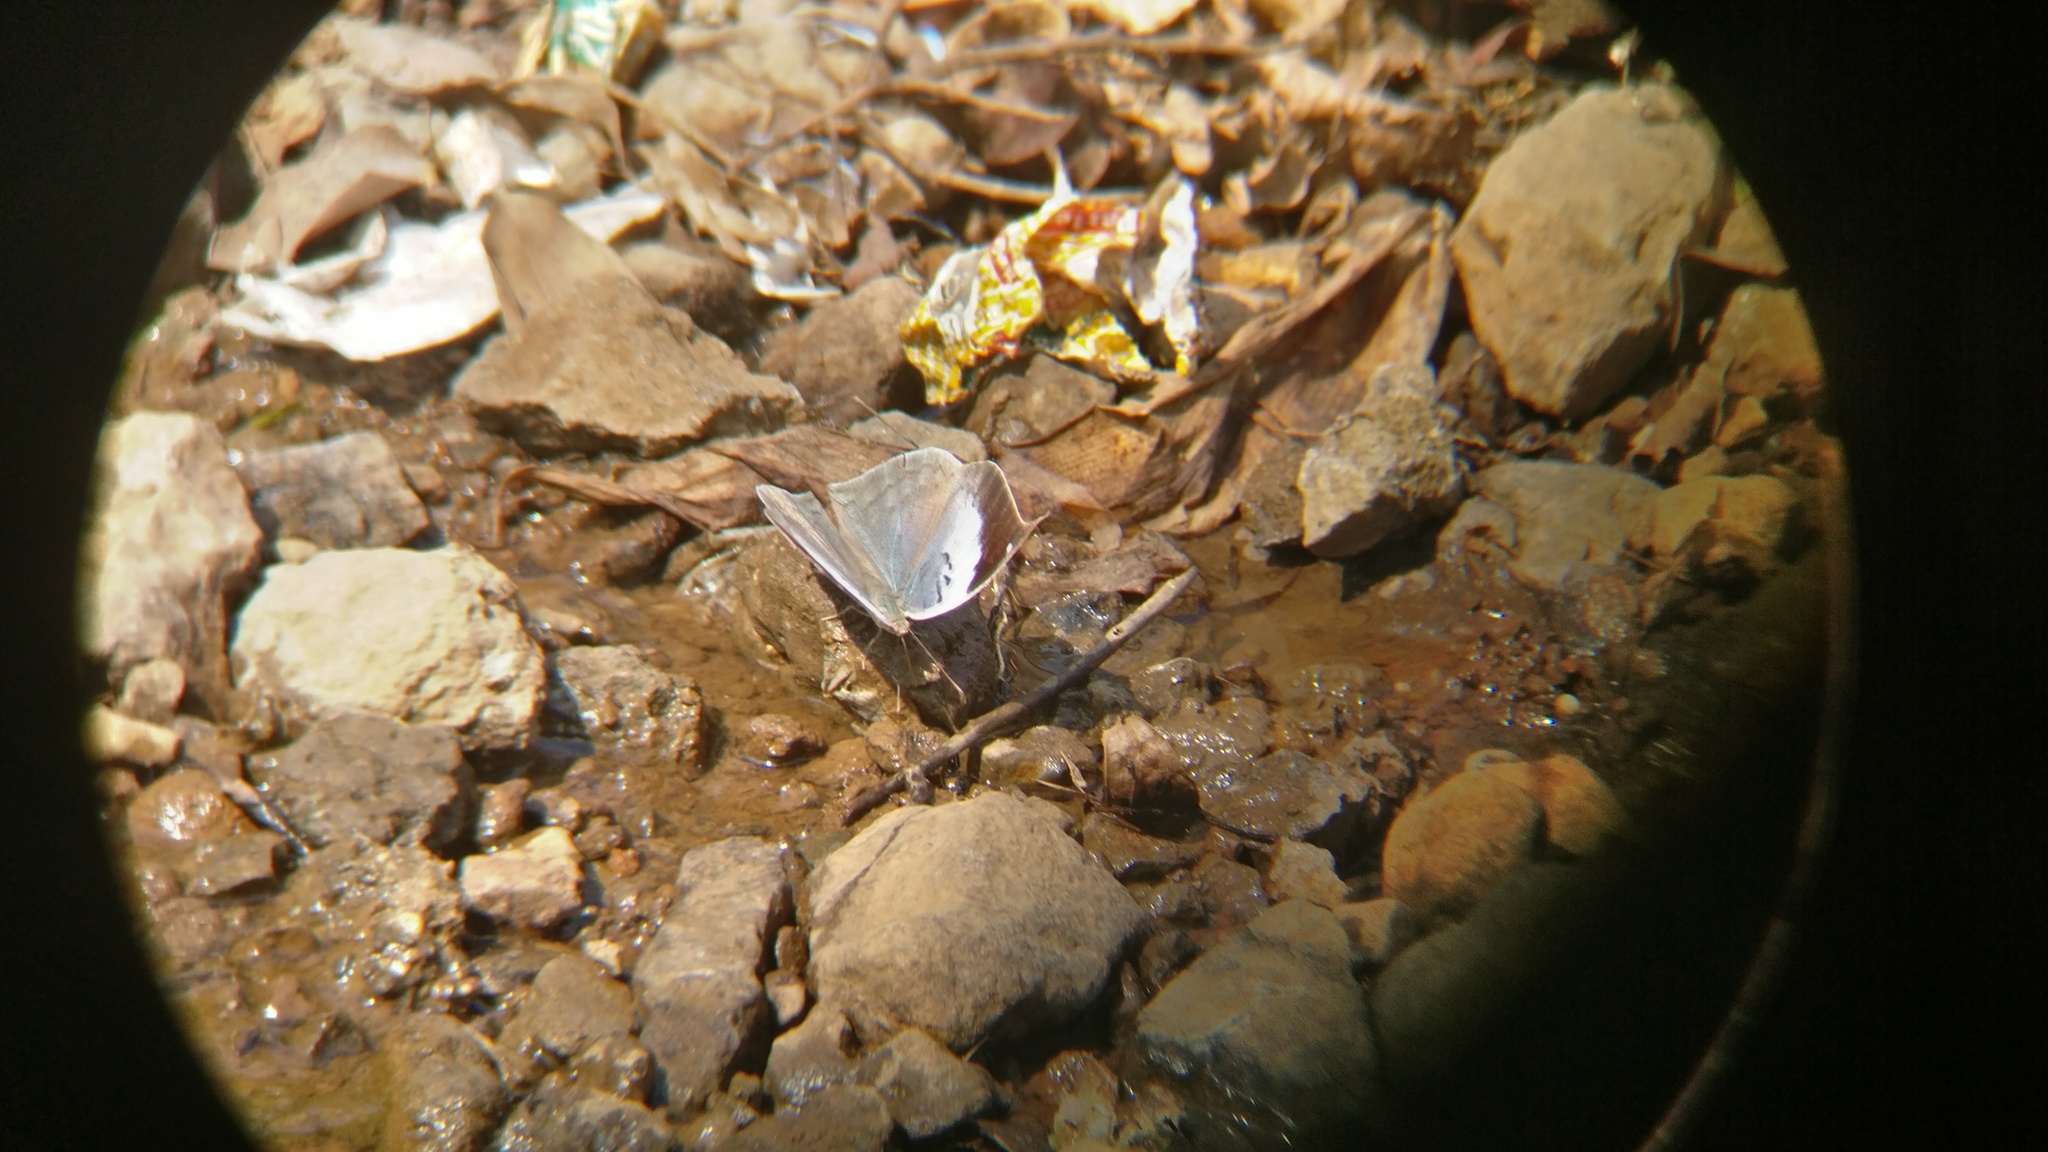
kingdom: Animalia
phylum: Arthropoda
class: Insecta
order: Lepidoptera
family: Nymphalidae
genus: Kallima
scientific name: Kallima horsfieldii
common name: Sahyadri blue oakleaf
